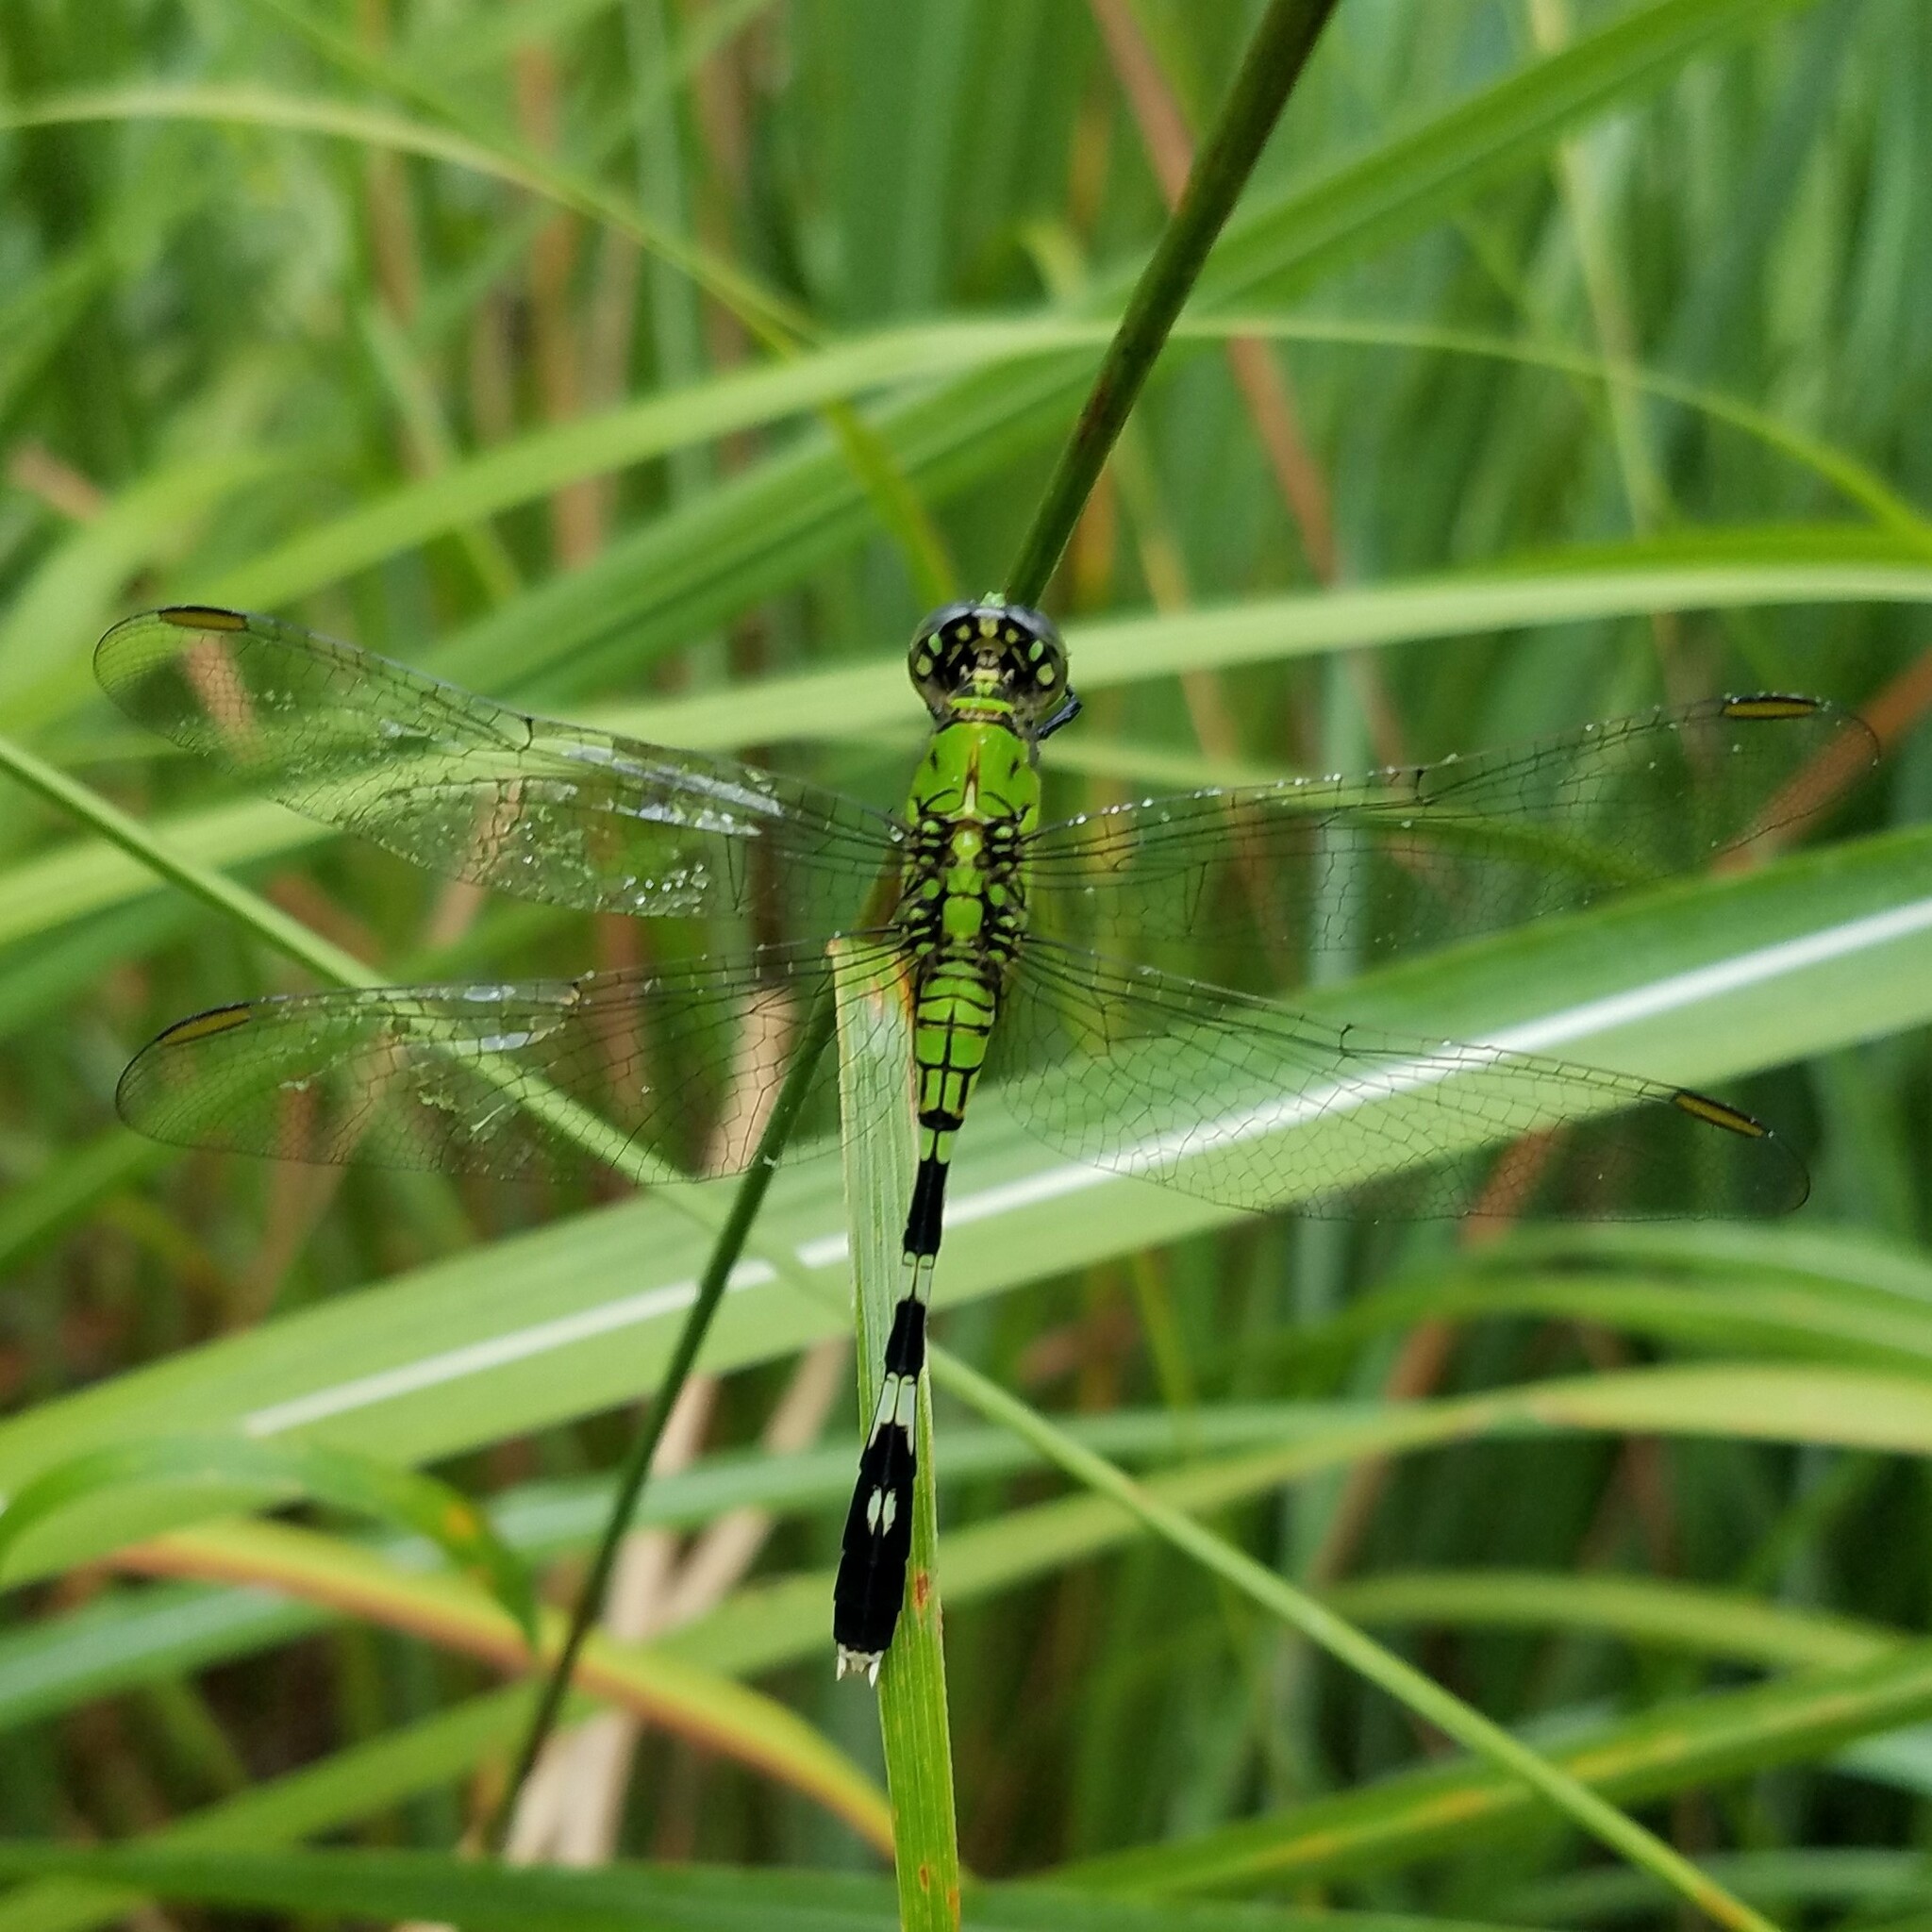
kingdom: Animalia
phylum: Arthropoda
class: Insecta
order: Odonata
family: Libellulidae
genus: Erythemis
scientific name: Erythemis simplicicollis
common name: Eastern pondhawk
